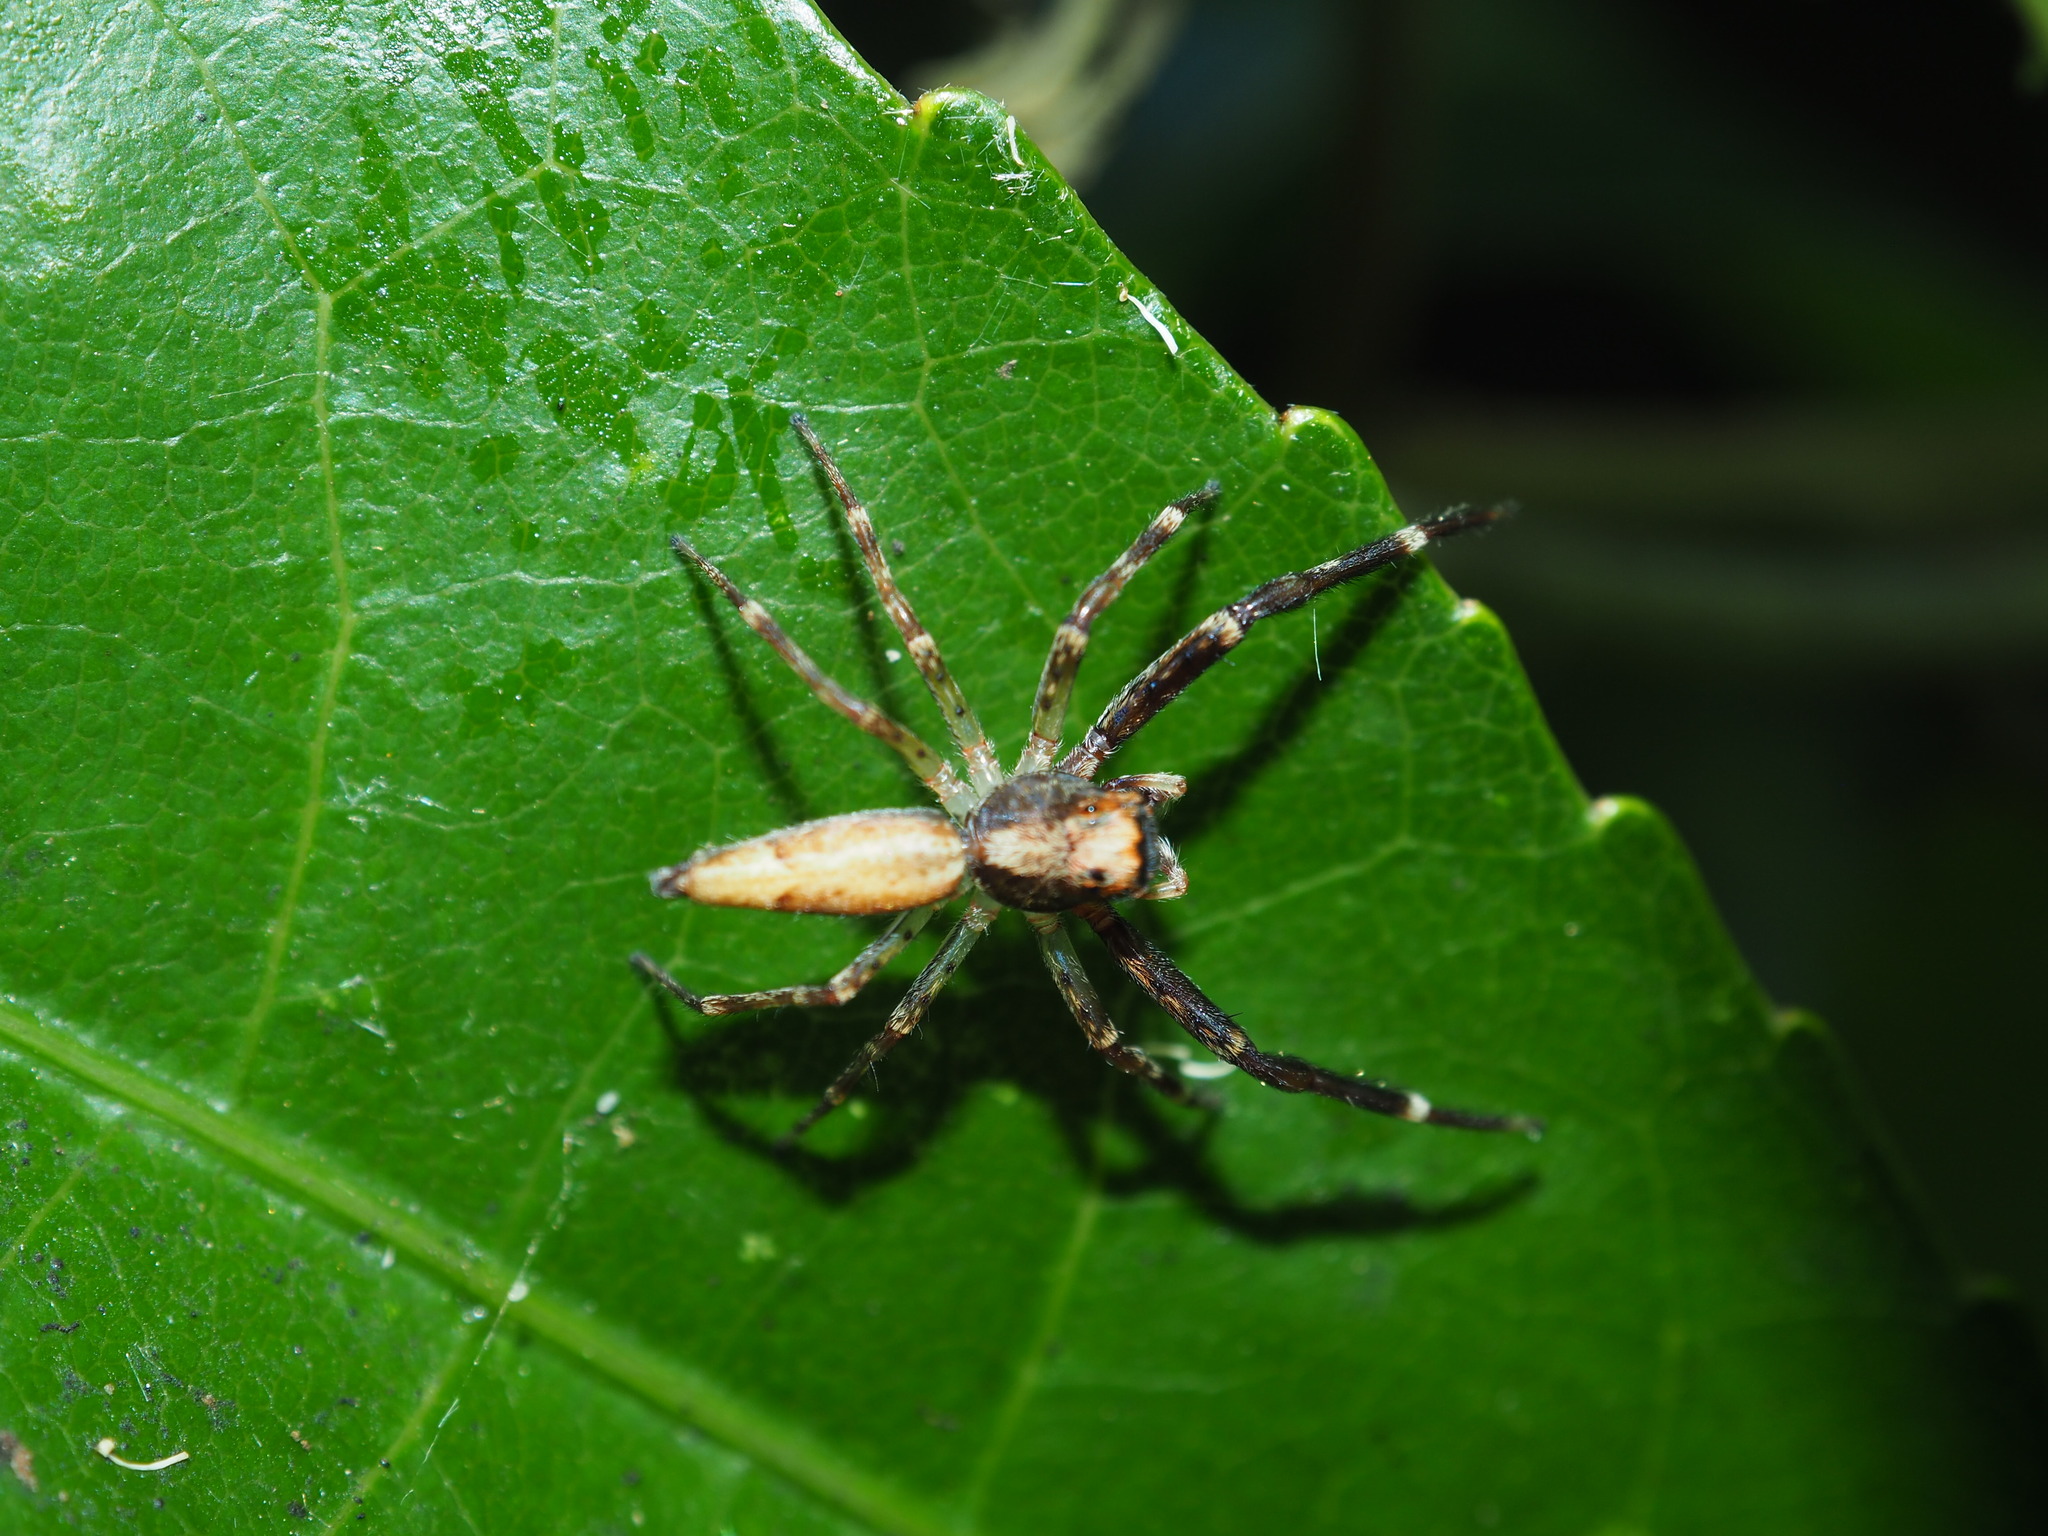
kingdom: Animalia
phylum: Arthropoda
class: Arachnida
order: Araneae
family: Salticidae
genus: Helpis
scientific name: Helpis minitabunda
